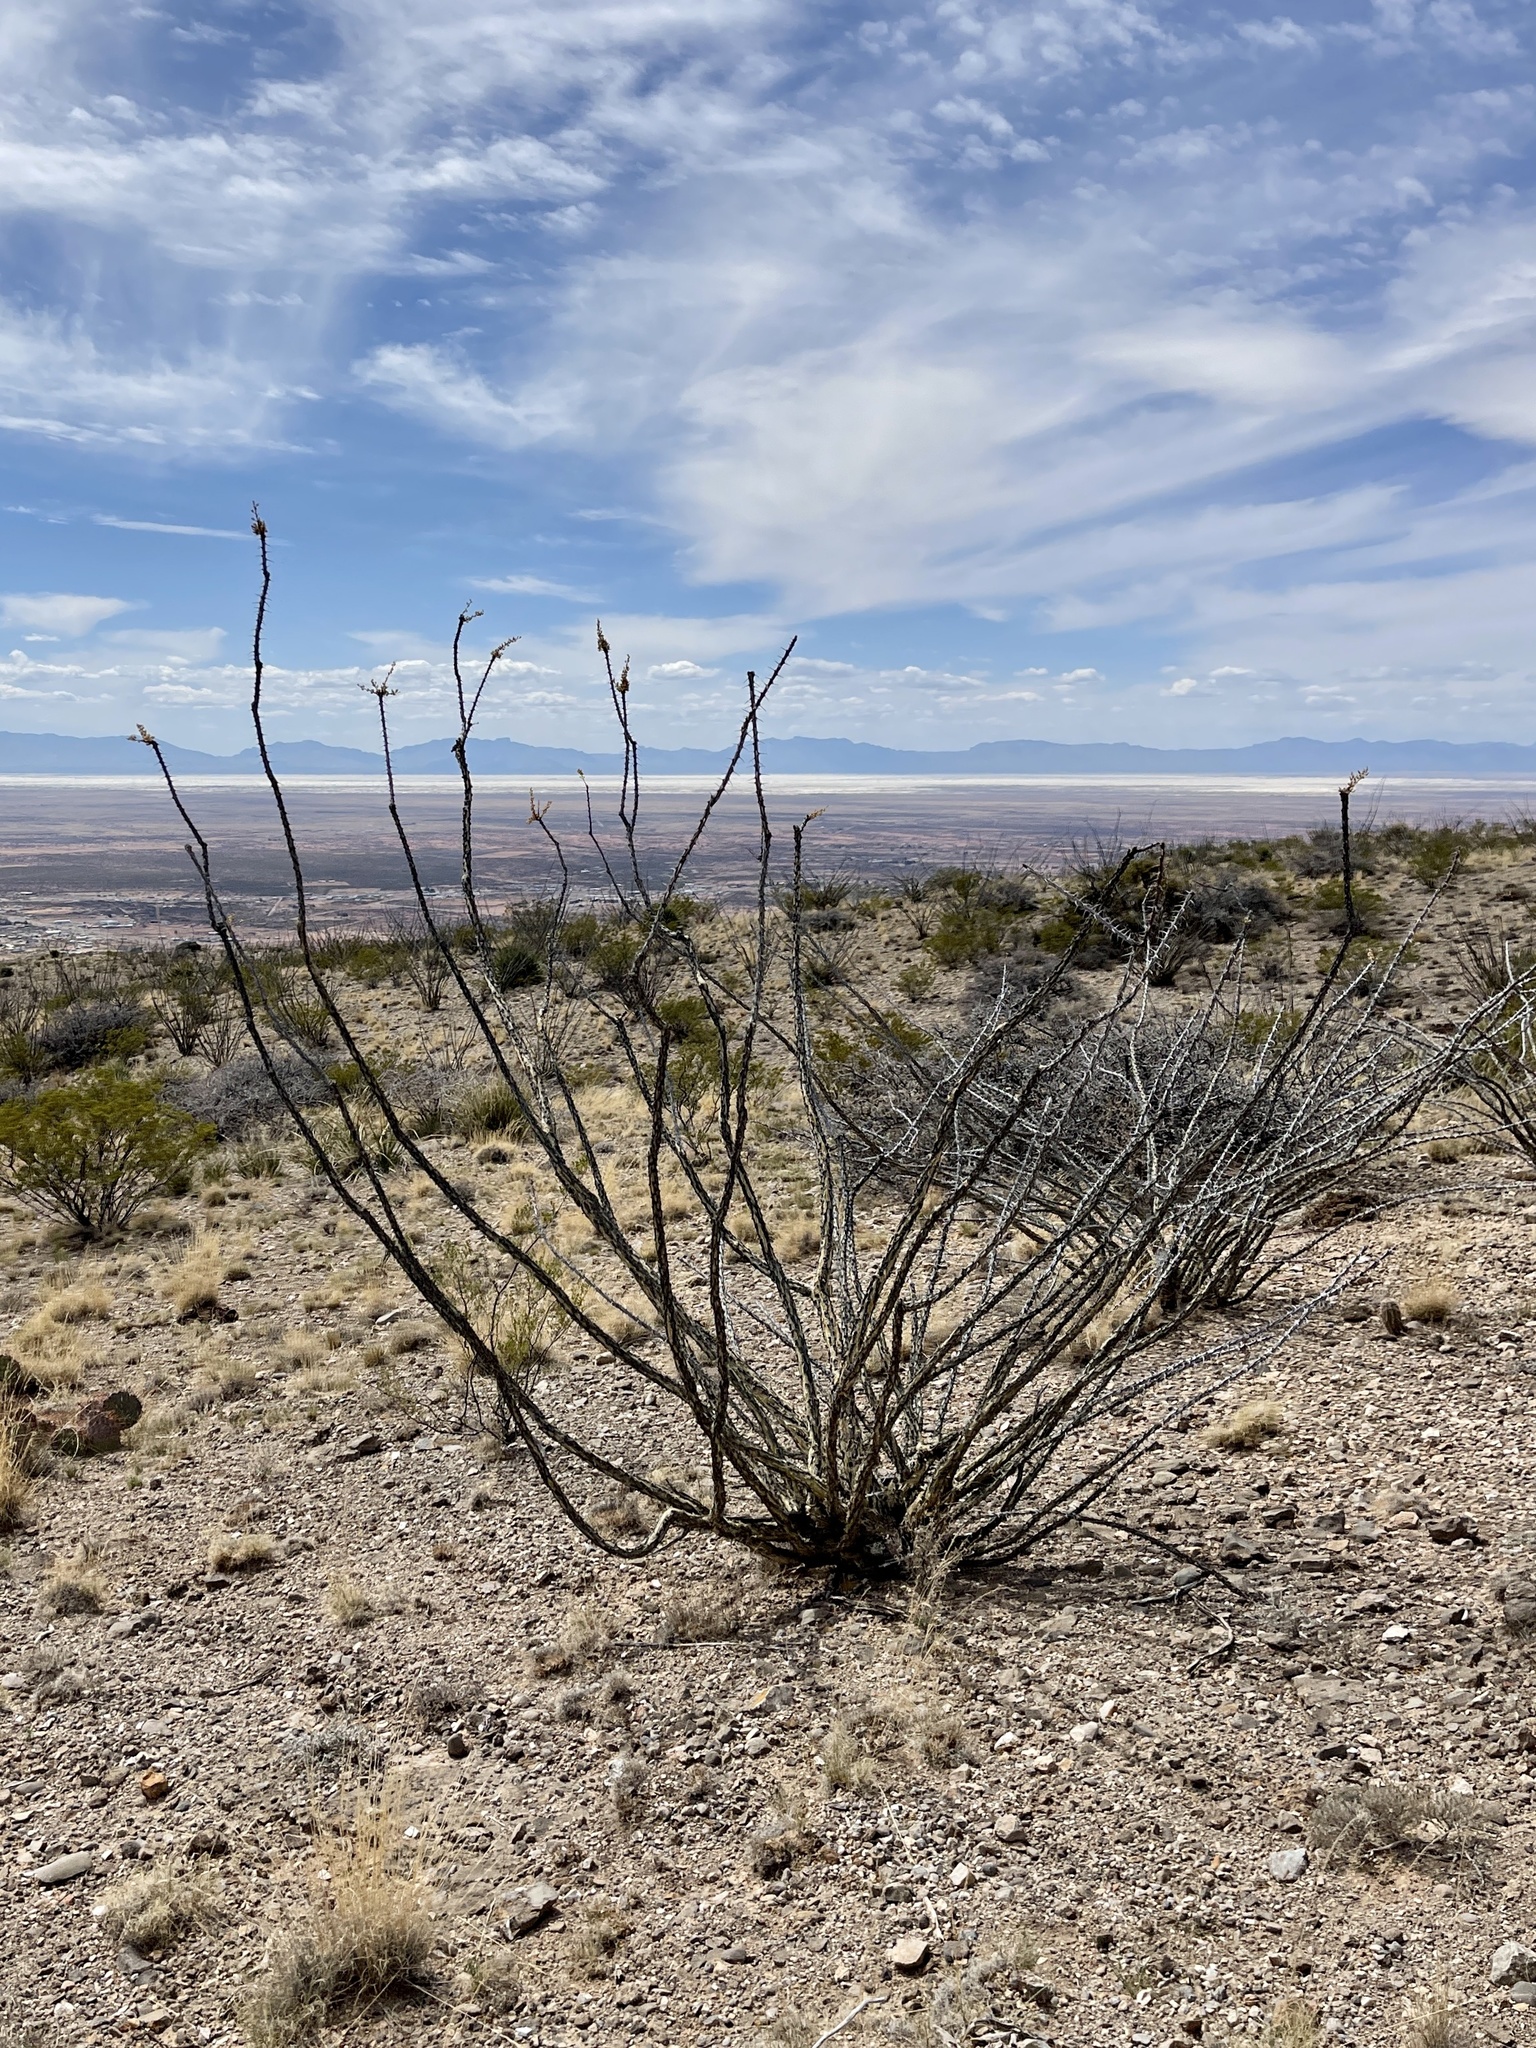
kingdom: Plantae
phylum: Tracheophyta
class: Magnoliopsida
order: Ericales
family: Fouquieriaceae
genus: Fouquieria
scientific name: Fouquieria splendens
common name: Vine-cactus
